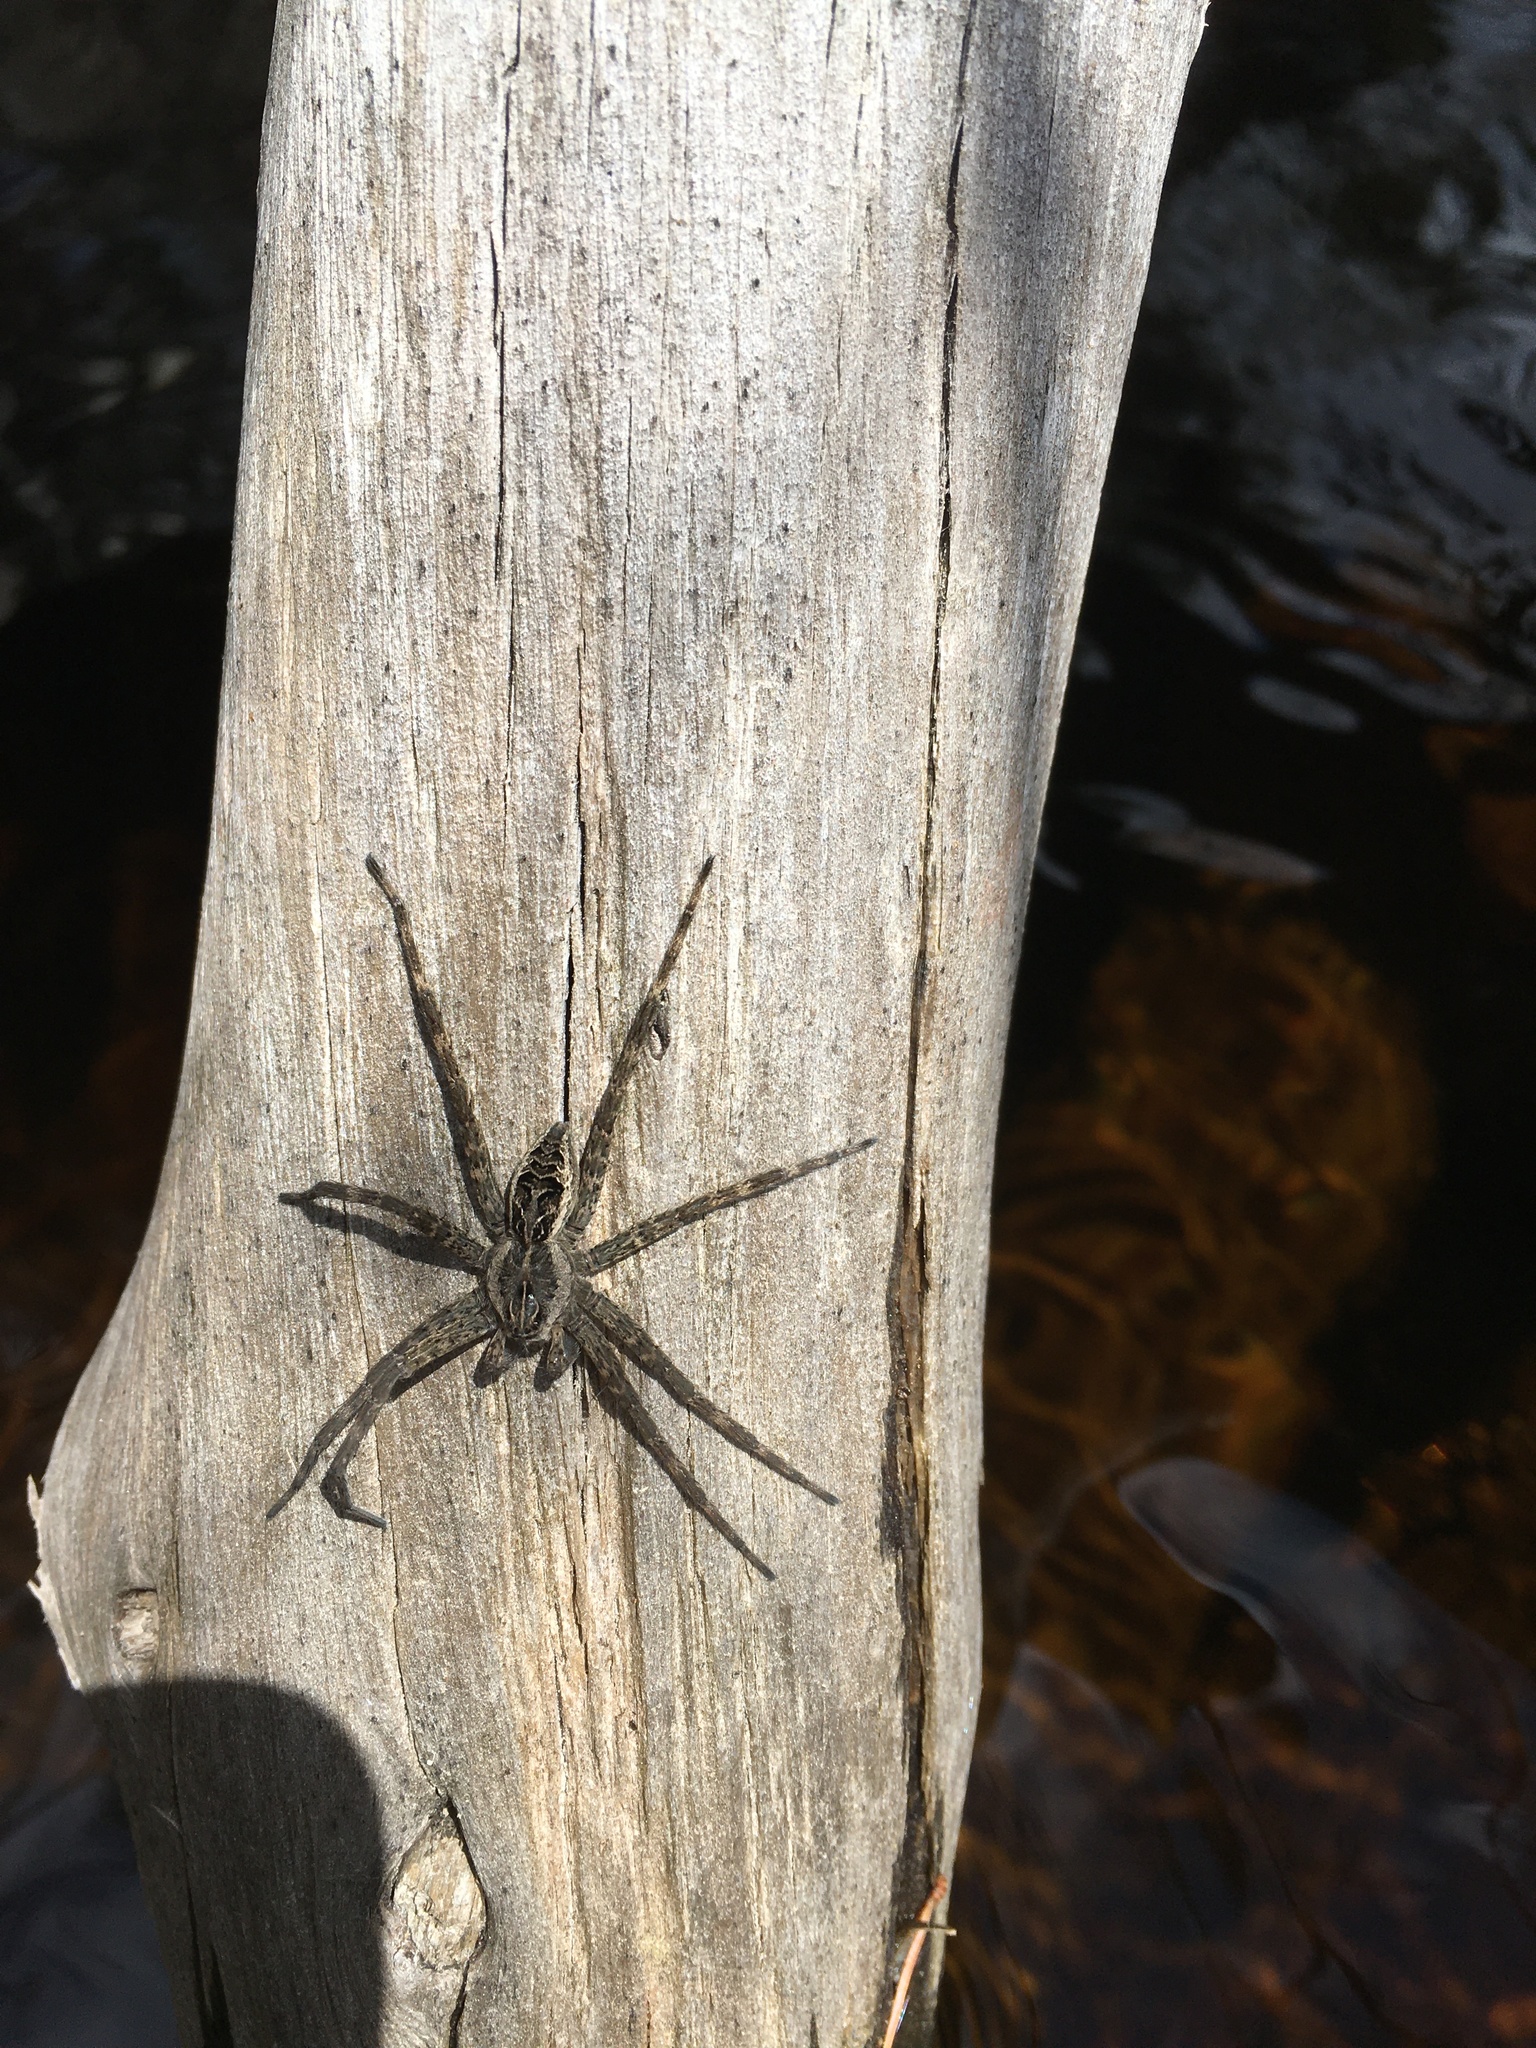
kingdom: Animalia
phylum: Arthropoda
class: Arachnida
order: Araneae
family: Pisauridae
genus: Dolomedes
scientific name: Dolomedes scriptus
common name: Striped fishing spider
